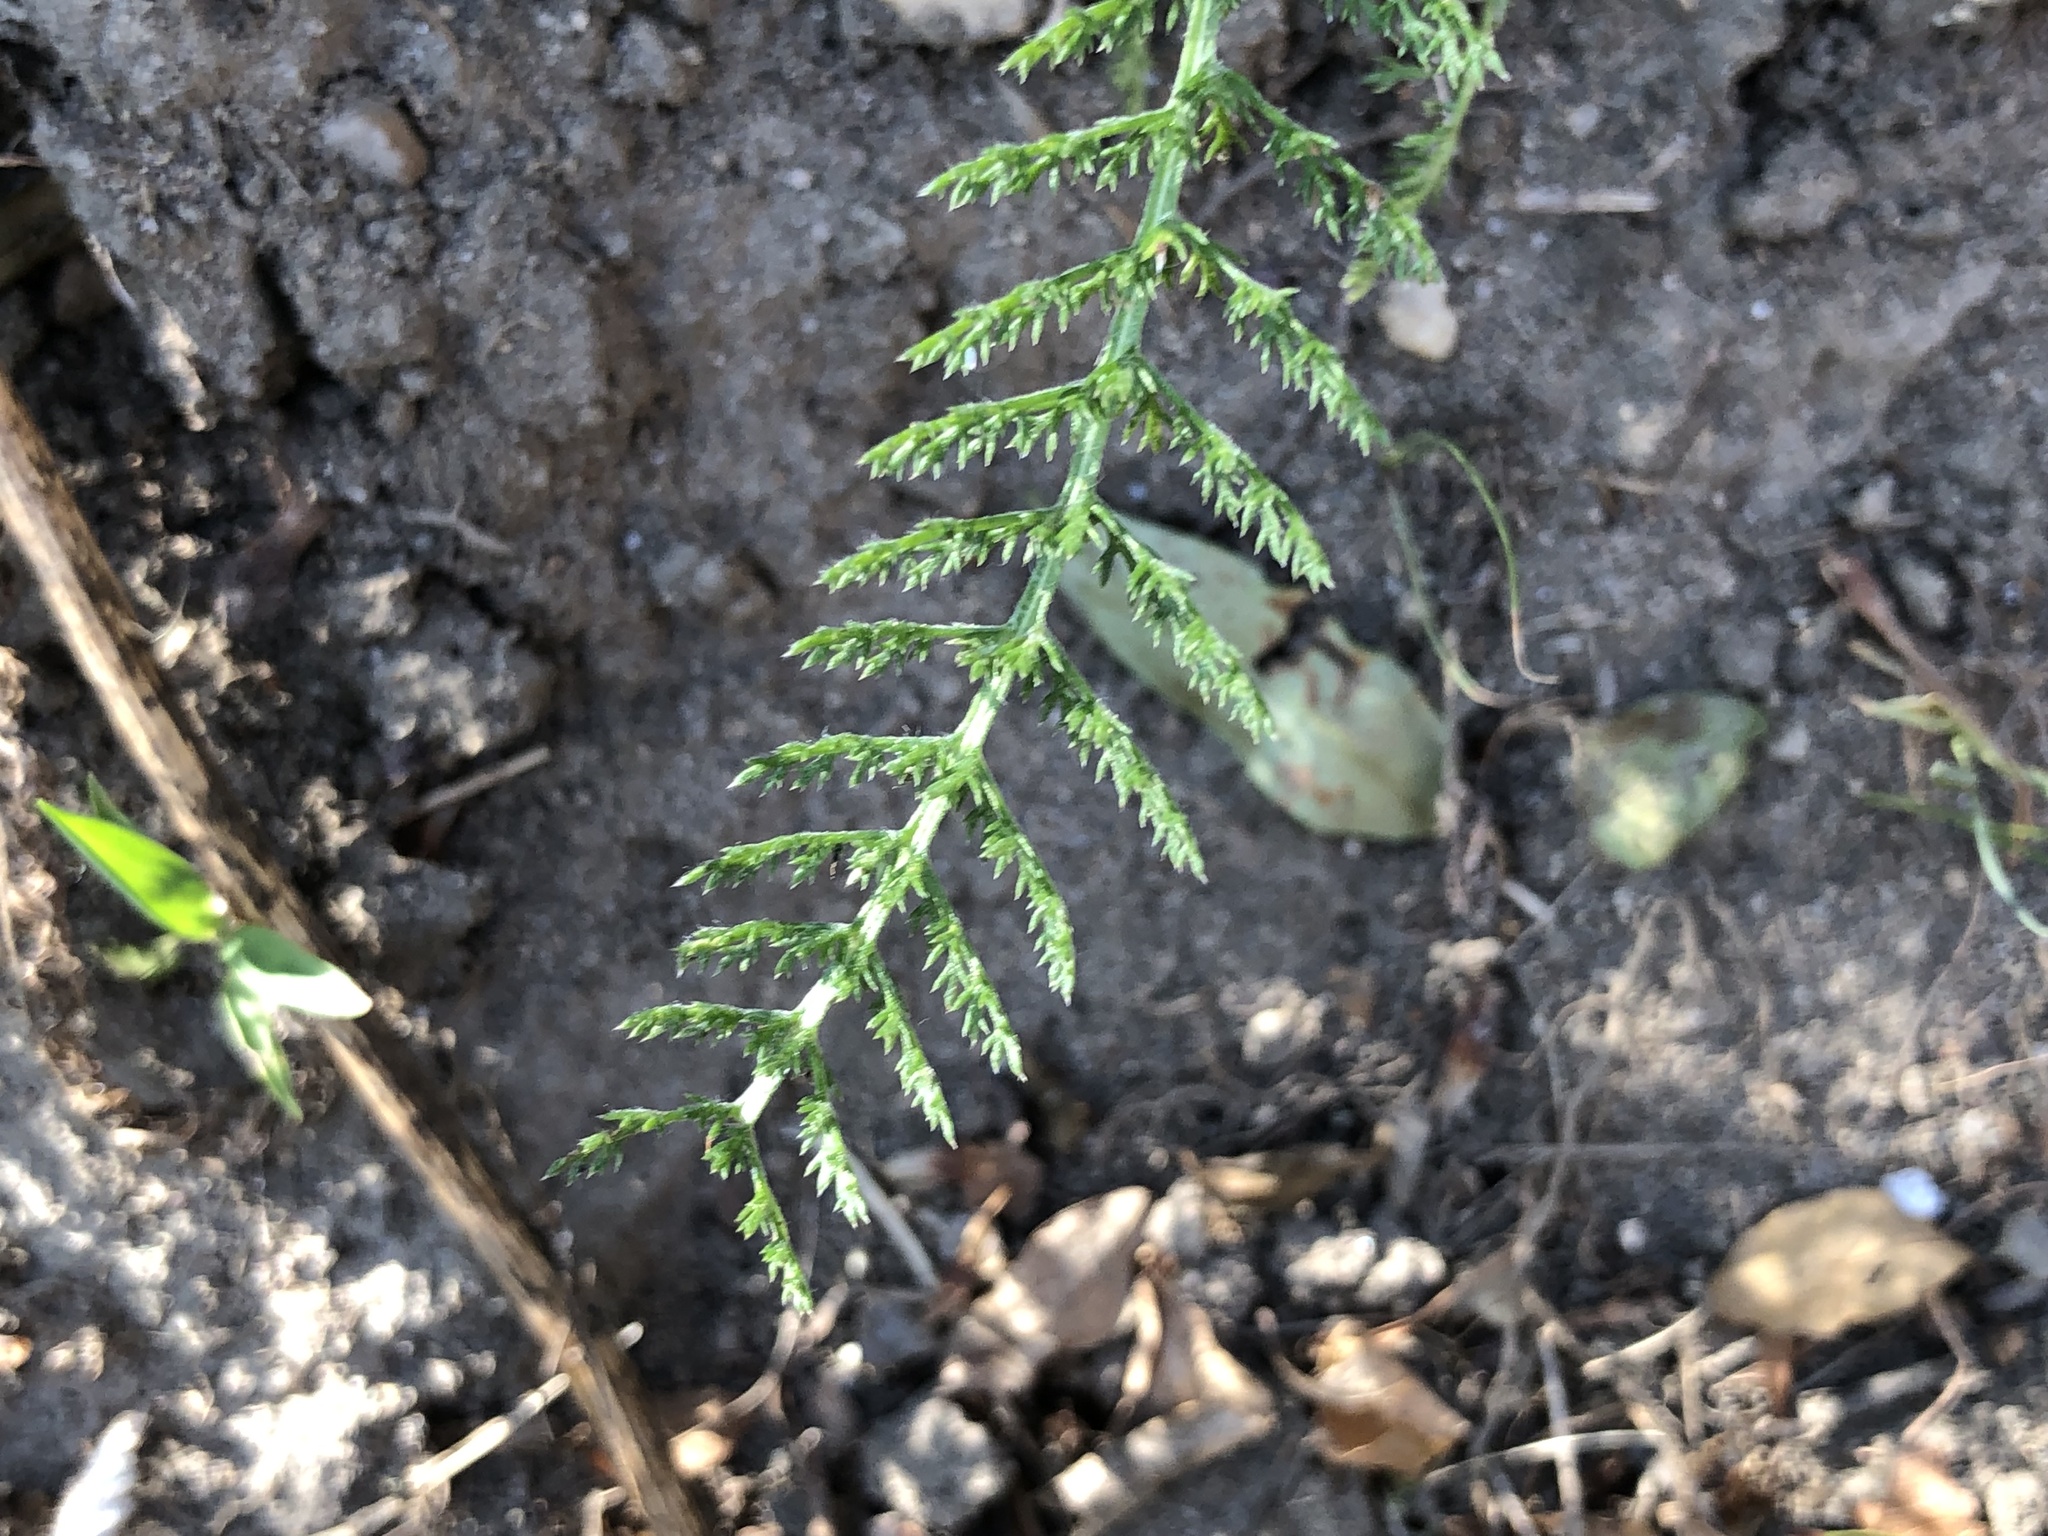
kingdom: Plantae
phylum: Tracheophyta
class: Magnoliopsida
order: Asterales
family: Asteraceae
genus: Achillea
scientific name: Achillea millefolium
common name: Yarrow
